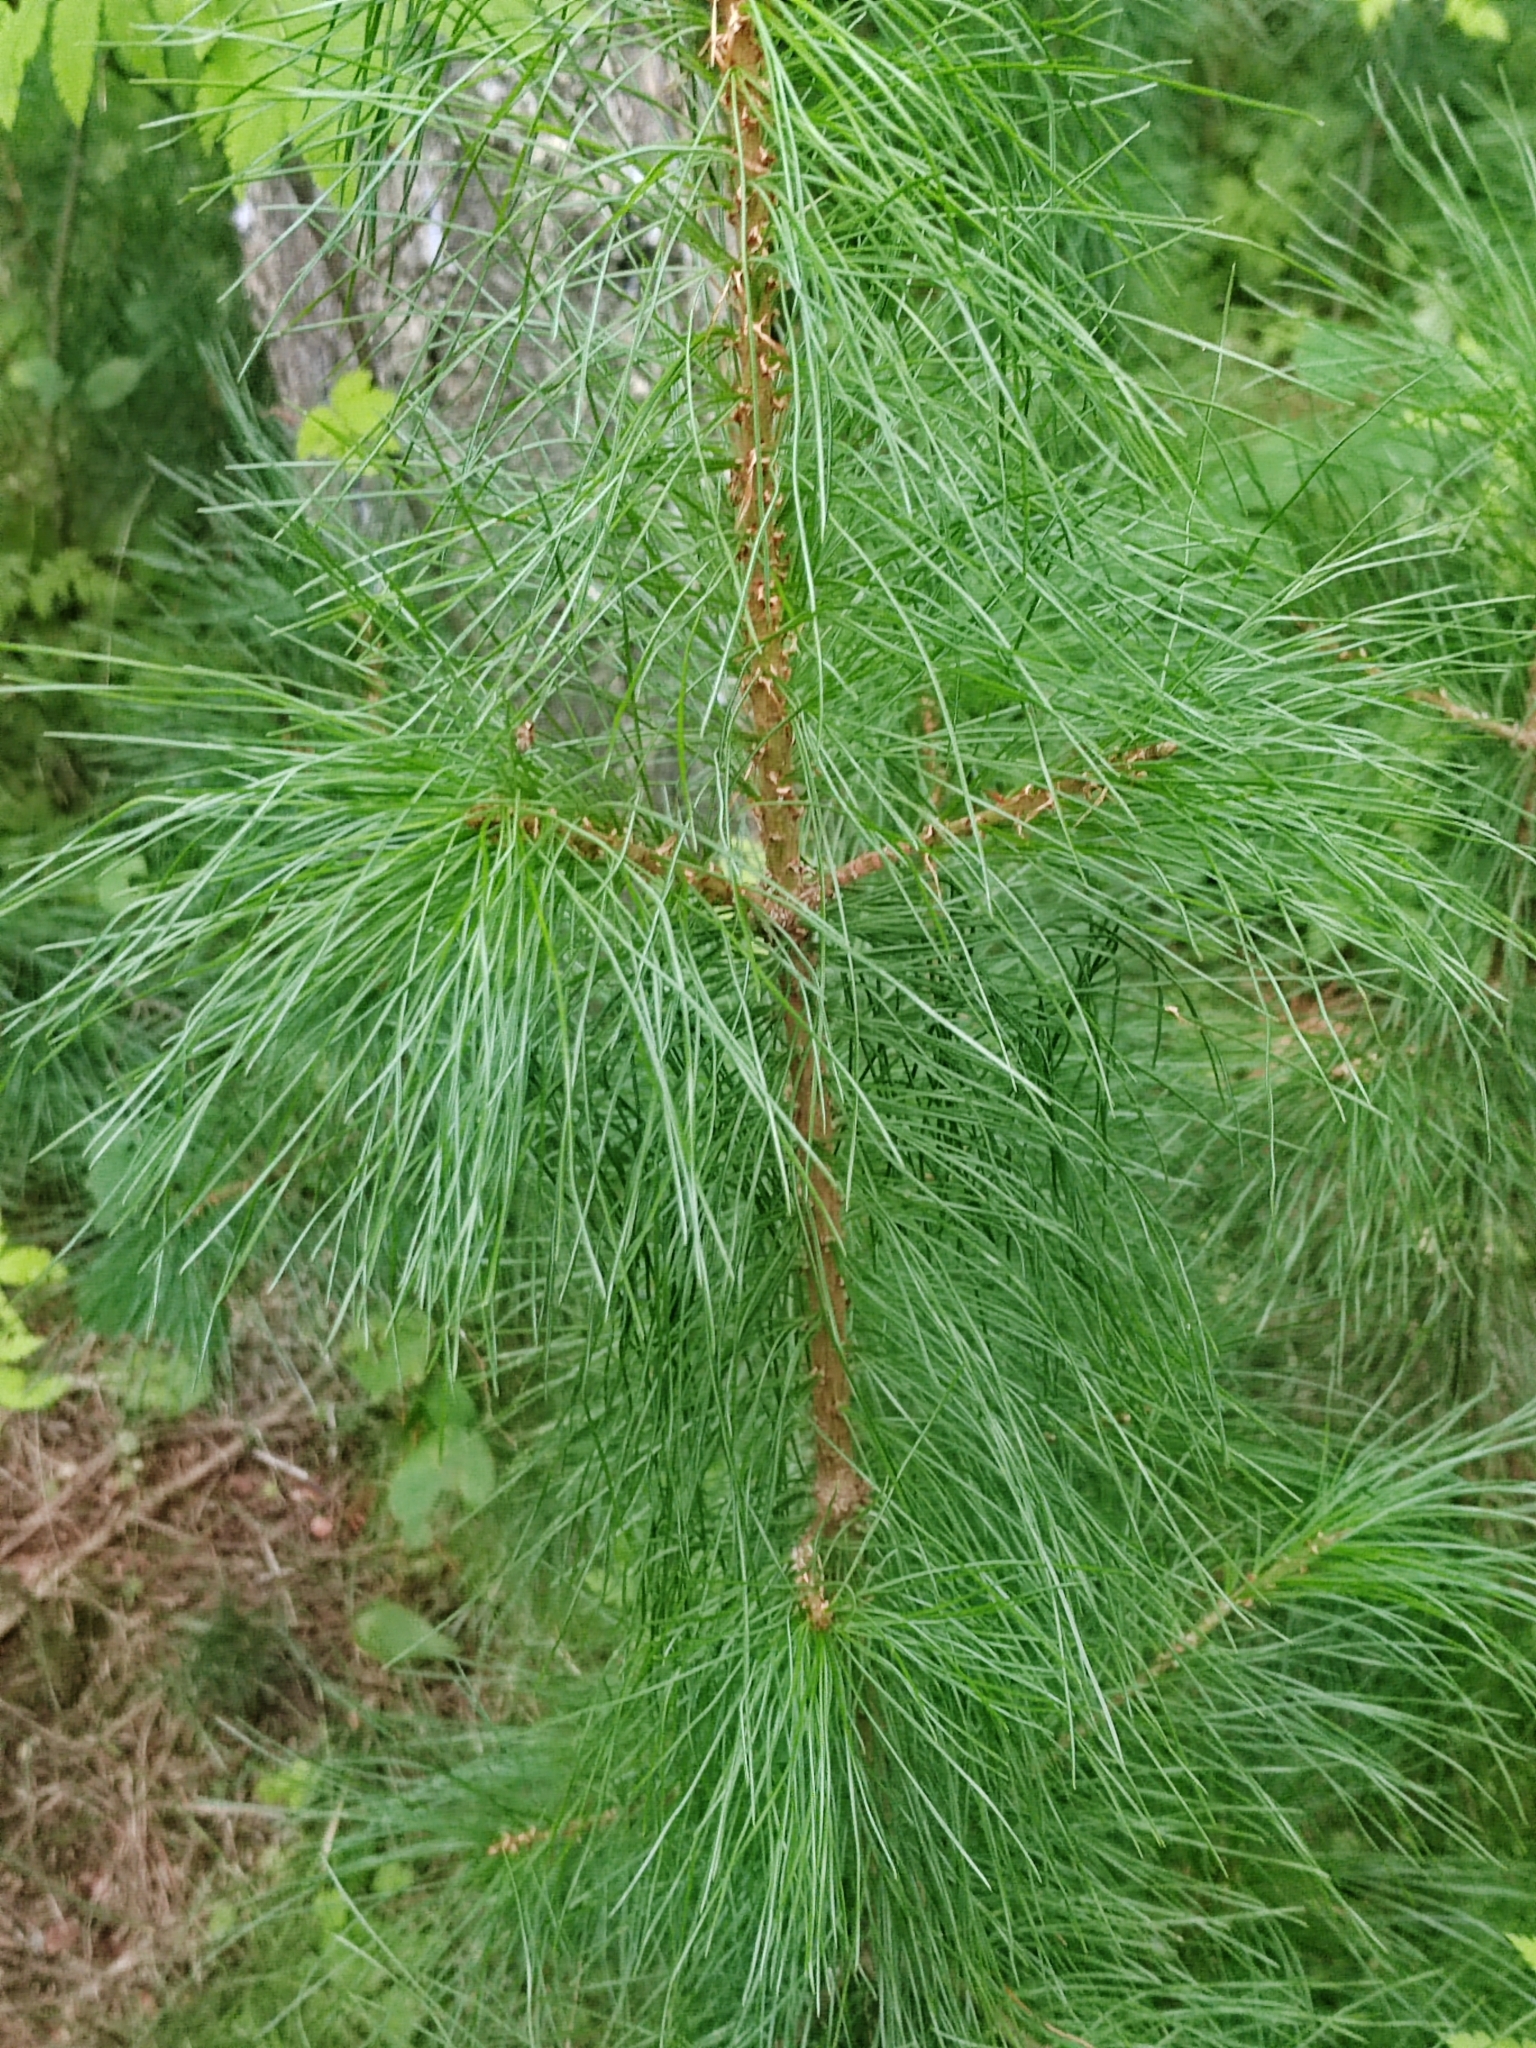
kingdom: Plantae
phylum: Tracheophyta
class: Pinopsida
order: Pinales
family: Pinaceae
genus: Pinus
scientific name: Pinus sibirica
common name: Siberian pine
